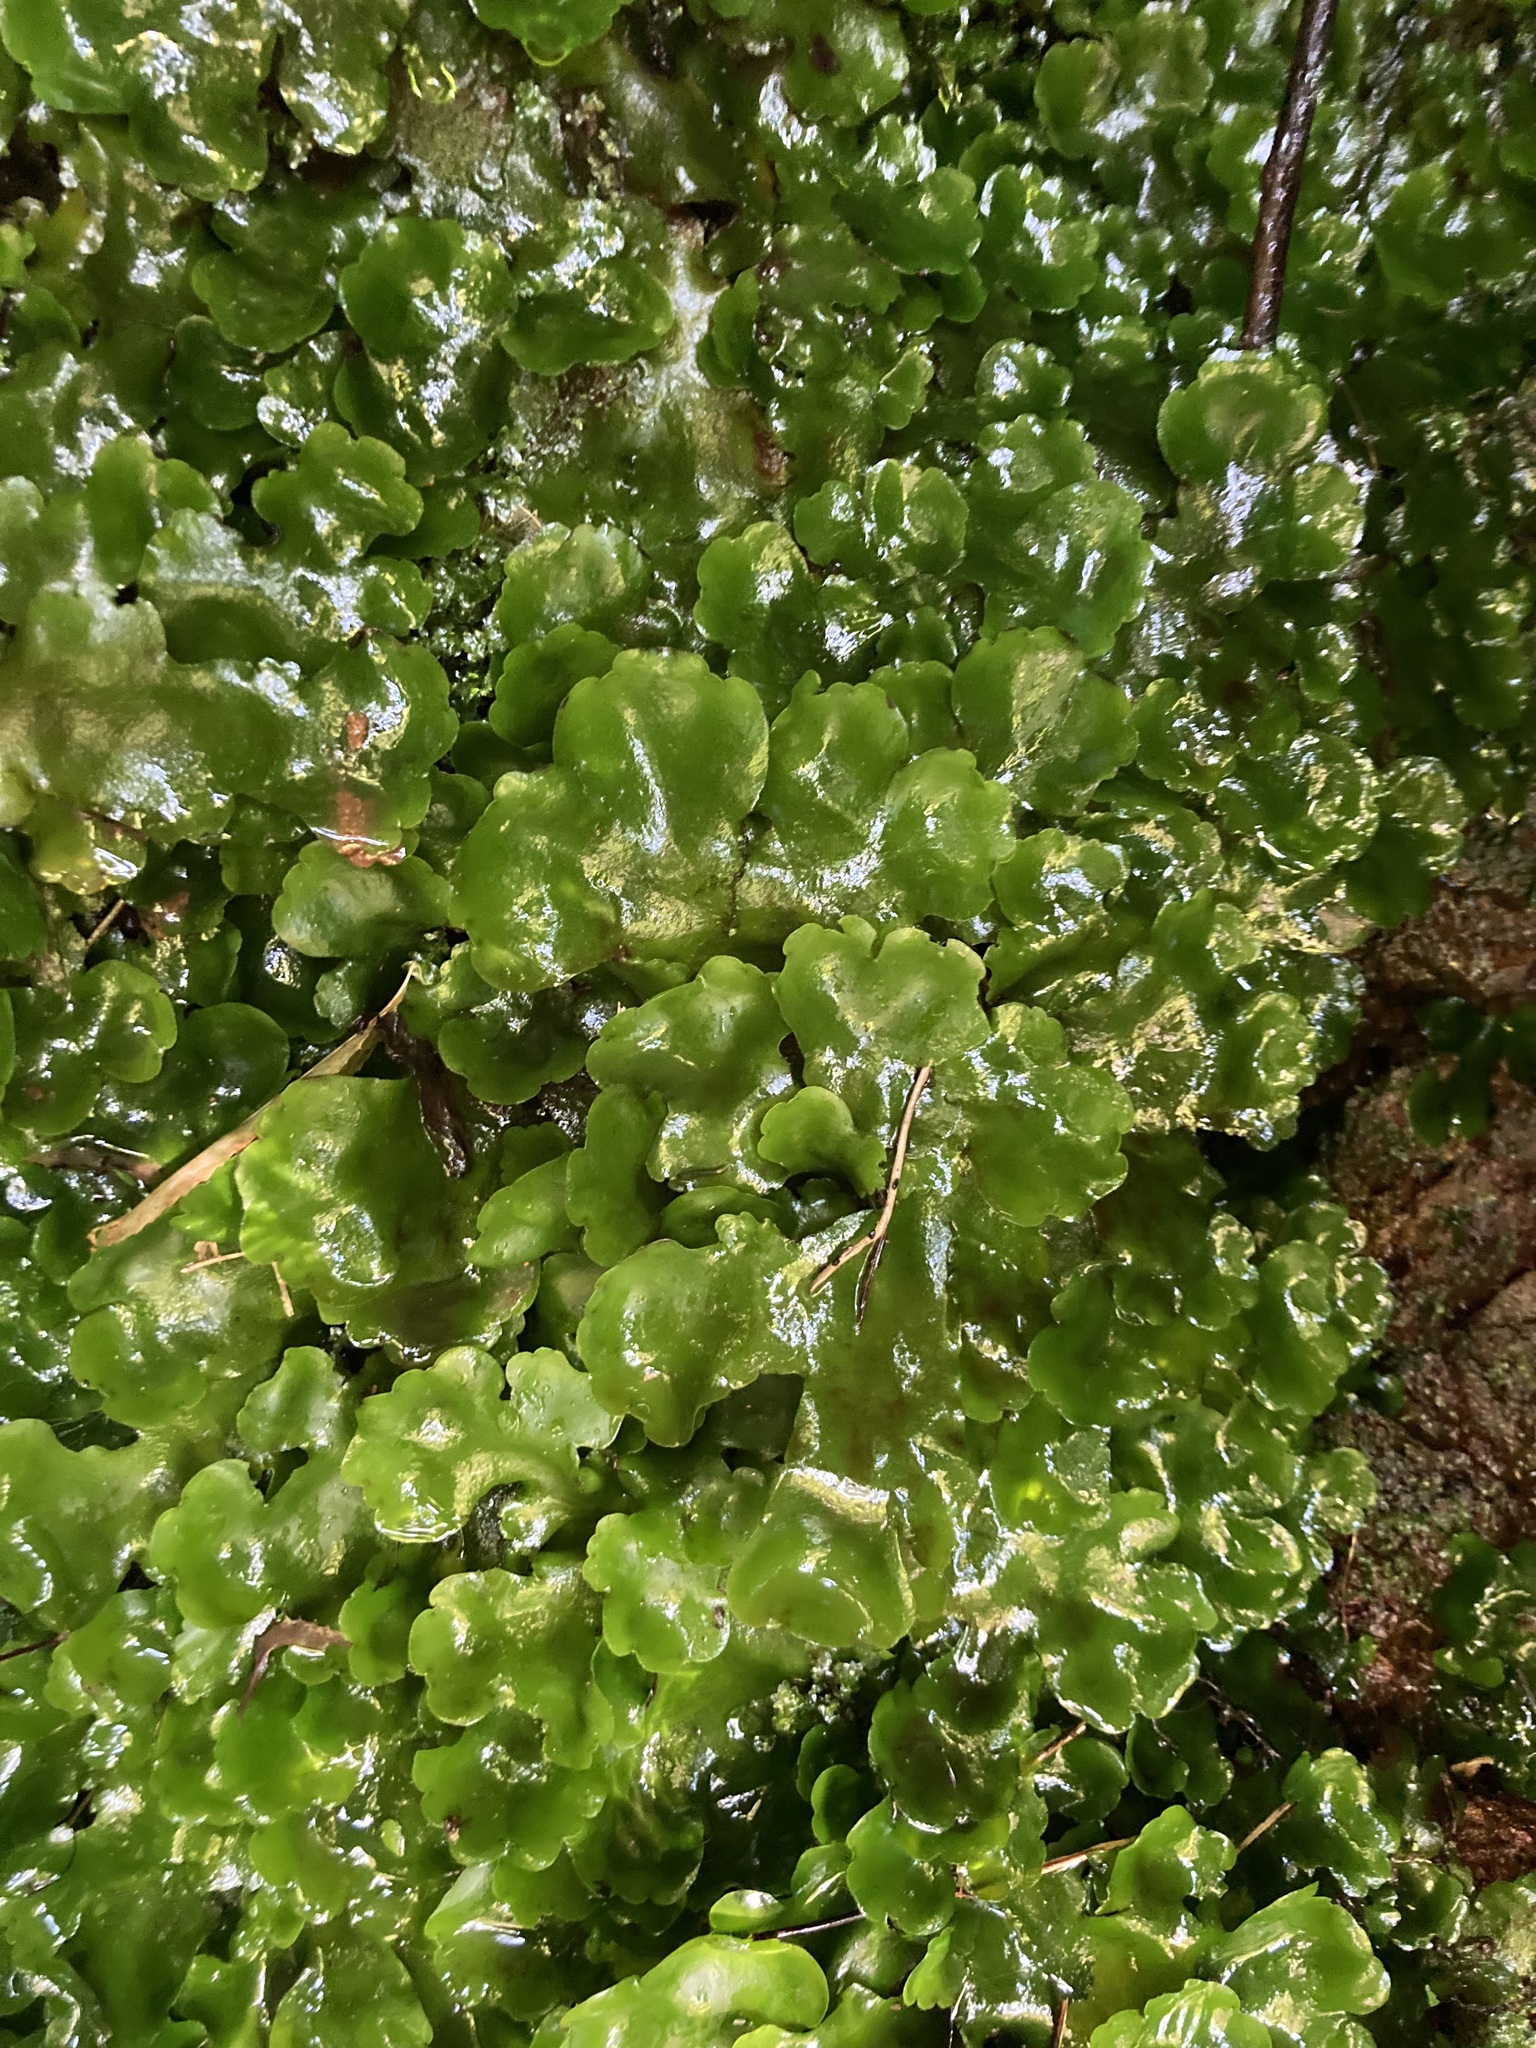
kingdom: Plantae
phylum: Marchantiophyta
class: Marchantiopsida
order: Marchantiales
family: Monocleaceae
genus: Monoclea
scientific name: Monoclea forsteri
